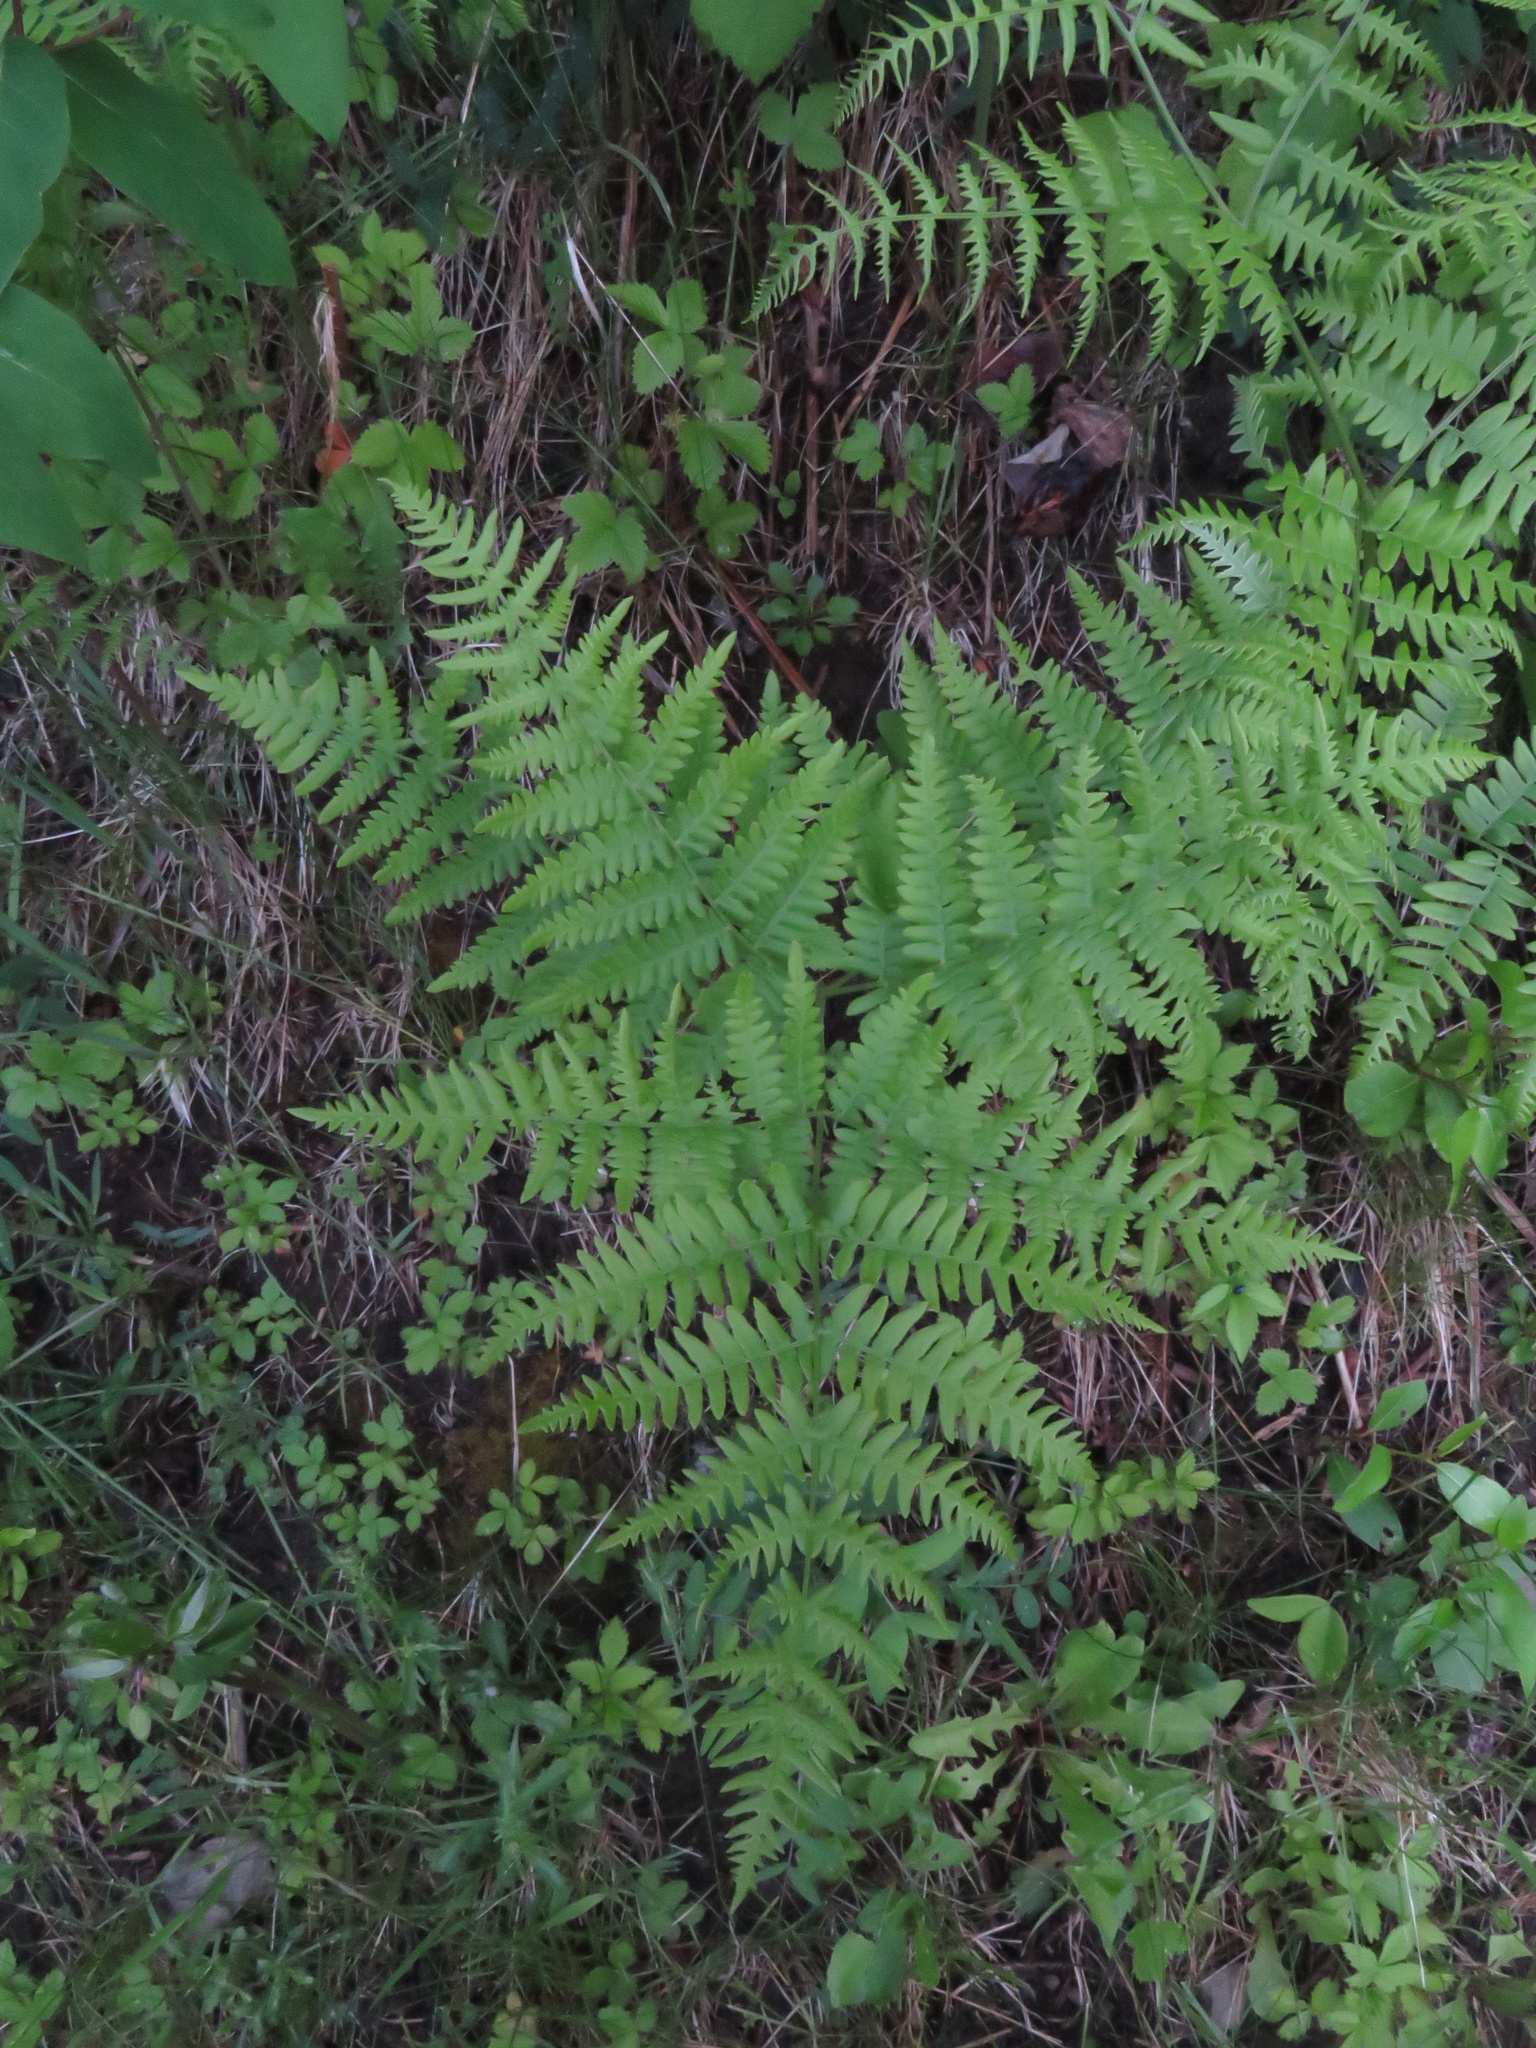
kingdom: Plantae
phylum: Tracheophyta
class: Polypodiopsida
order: Polypodiales
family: Dennstaedtiaceae
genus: Pteridium
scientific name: Pteridium aquilinum
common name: Bracken
